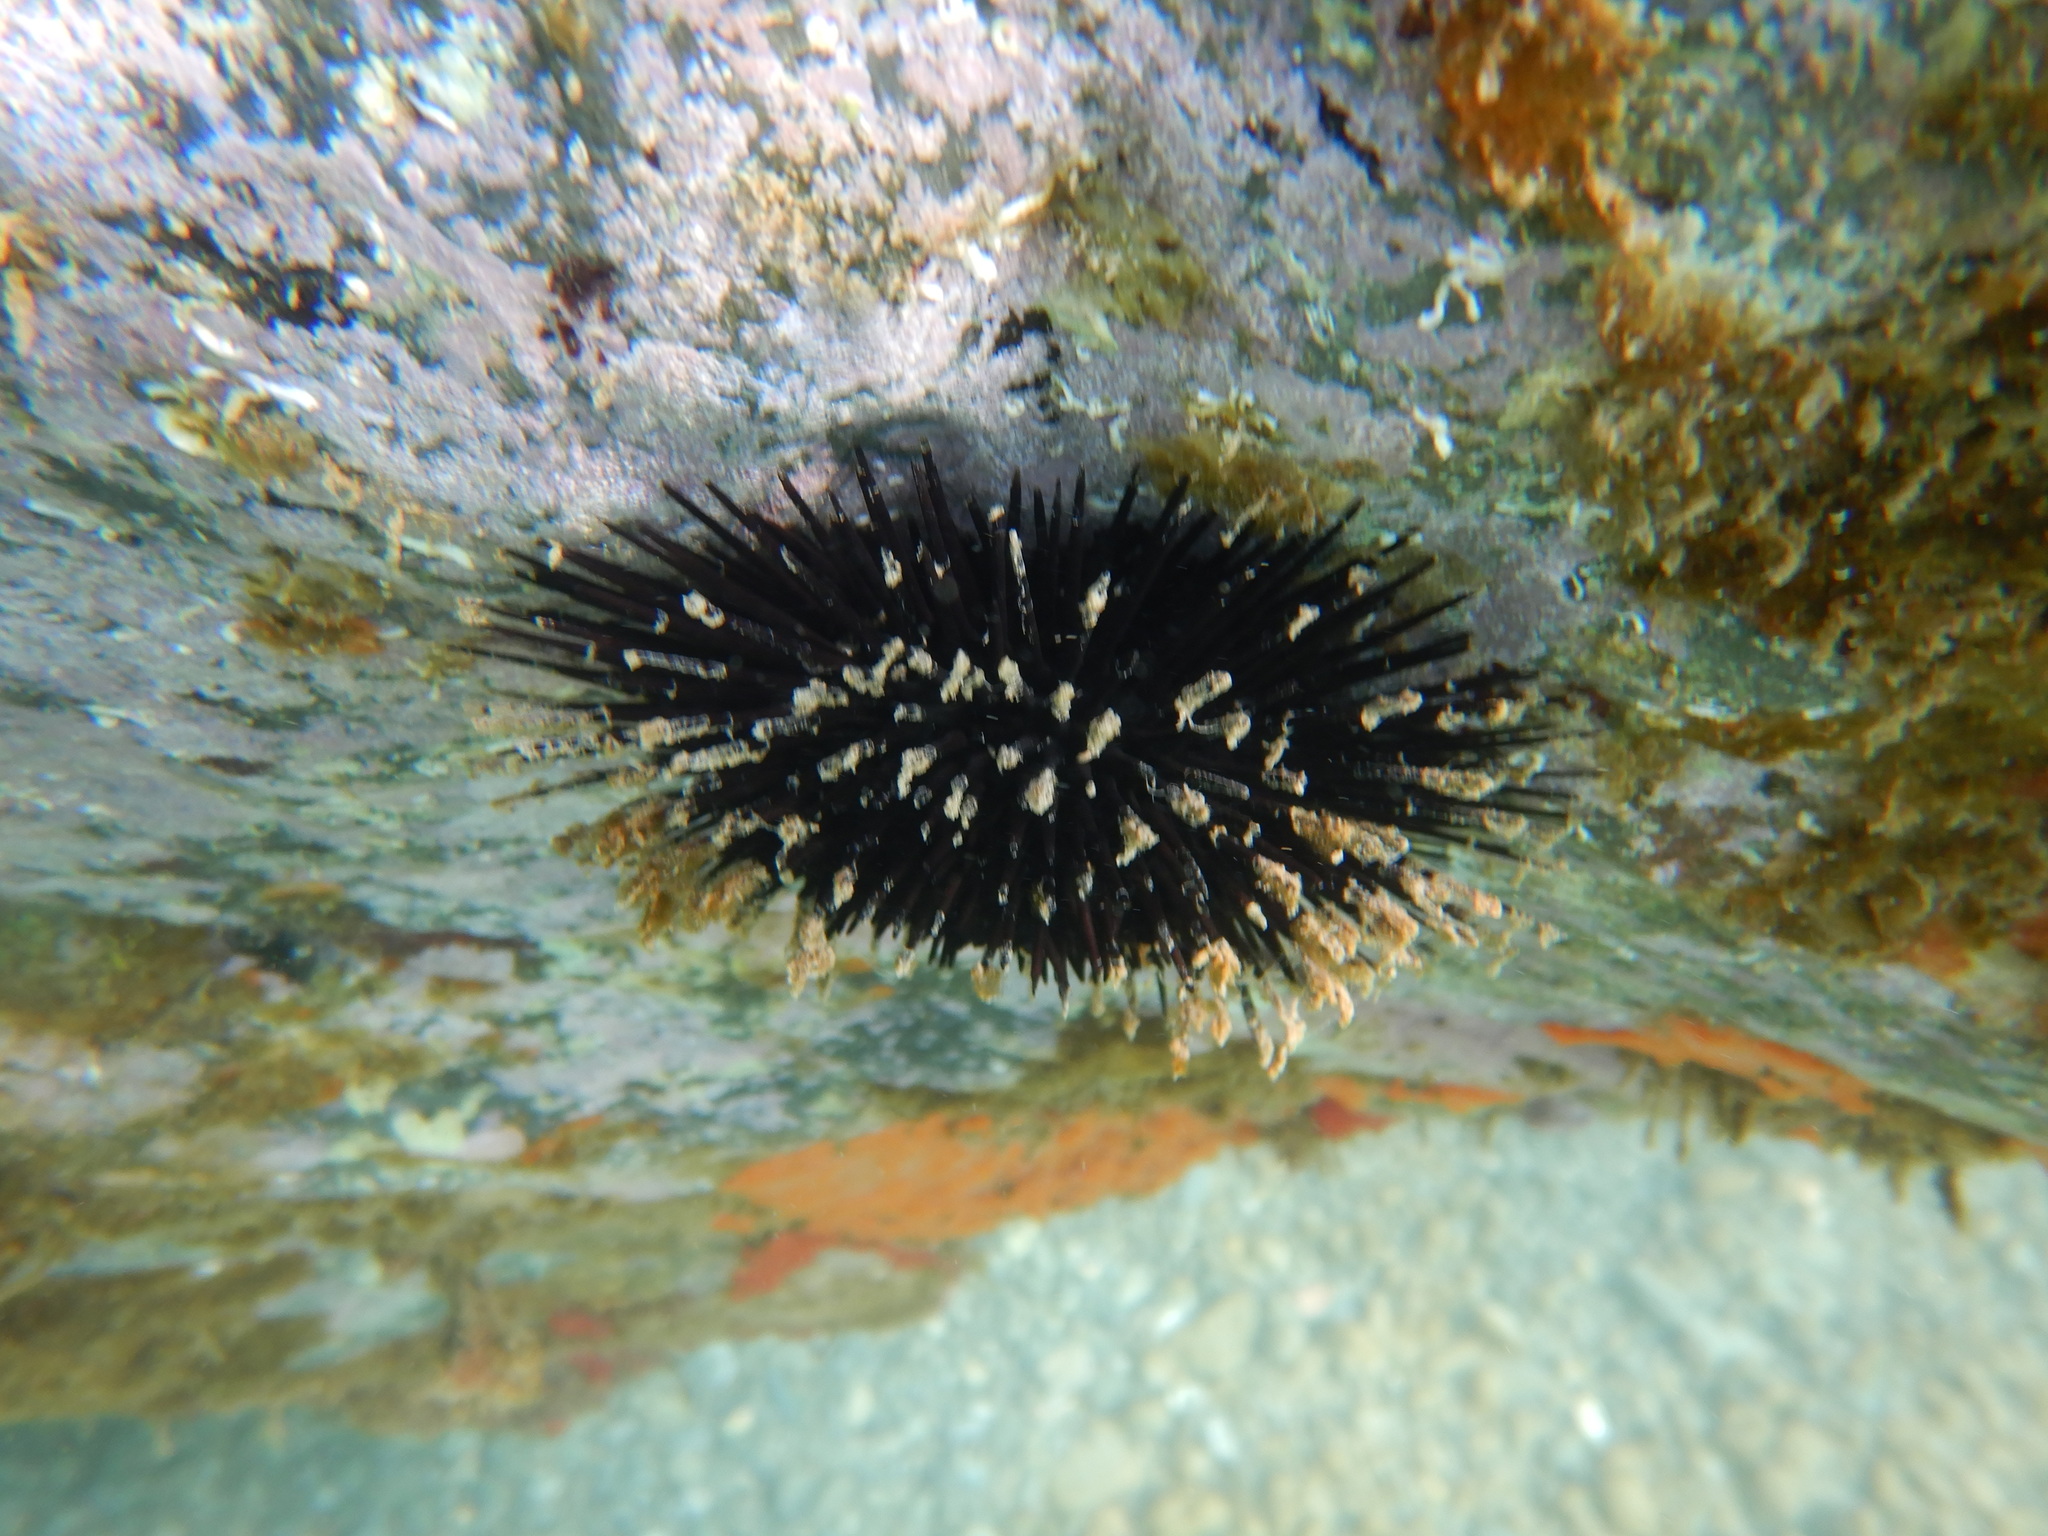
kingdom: Animalia
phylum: Echinodermata
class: Echinoidea
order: Arbacioida
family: Arbaciidae
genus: Arbacia
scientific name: Arbacia lixula
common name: Black sea urchin
